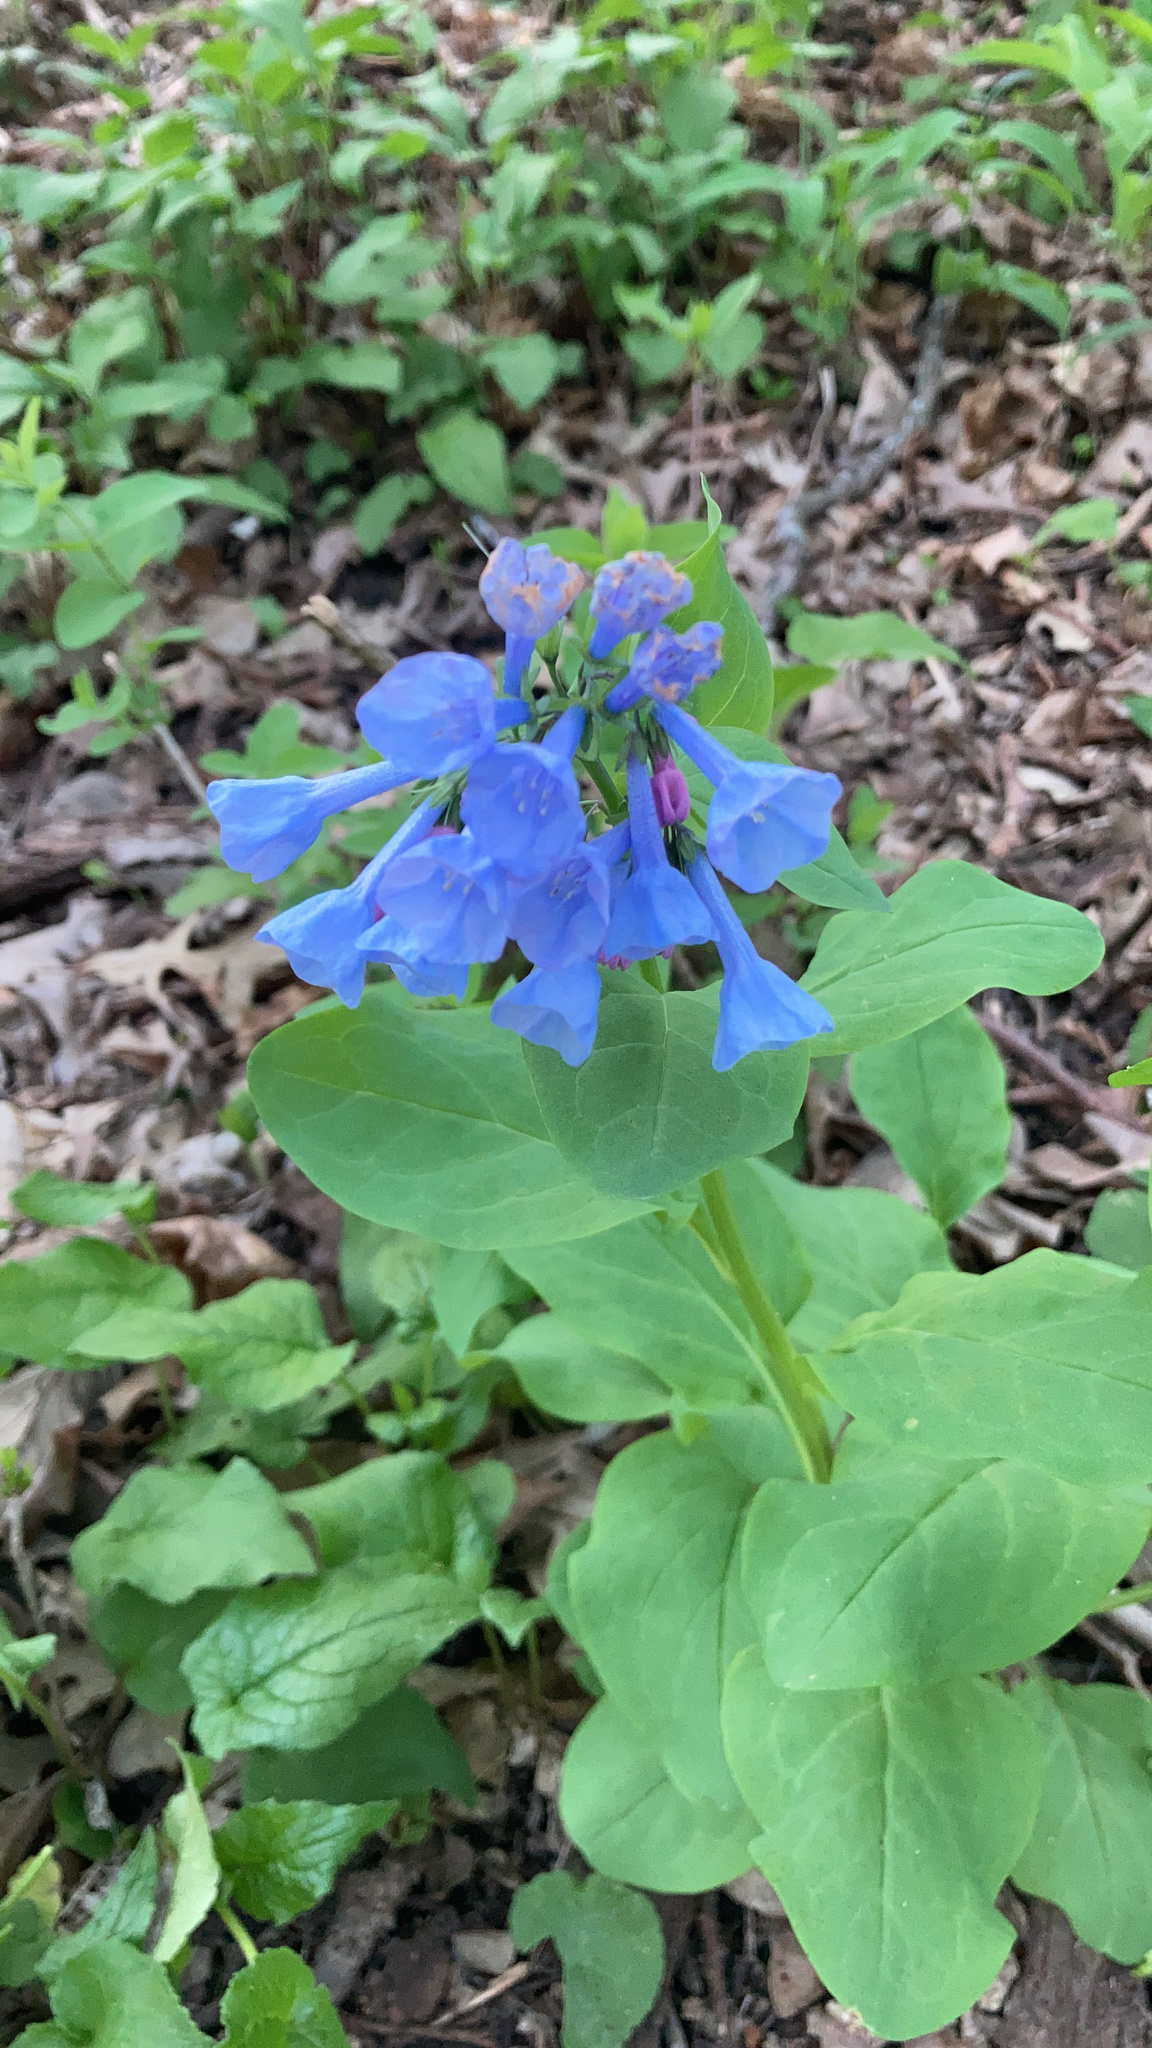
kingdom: Plantae
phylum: Tracheophyta
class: Magnoliopsida
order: Boraginales
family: Boraginaceae
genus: Mertensia
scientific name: Mertensia virginica
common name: Virginia bluebells
